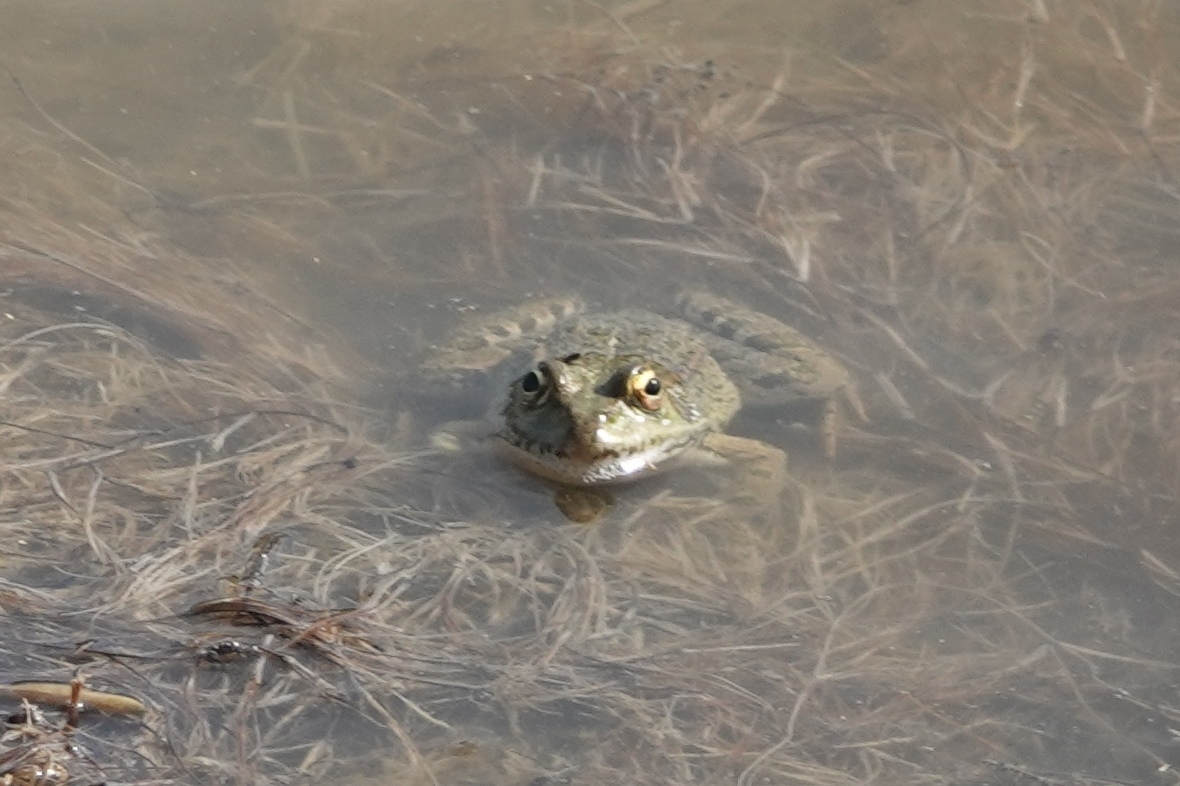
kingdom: Animalia
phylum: Chordata
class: Amphibia
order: Anura
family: Ranidae
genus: Pelophylax
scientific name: Pelophylax ridibundus
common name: Marsh frog
